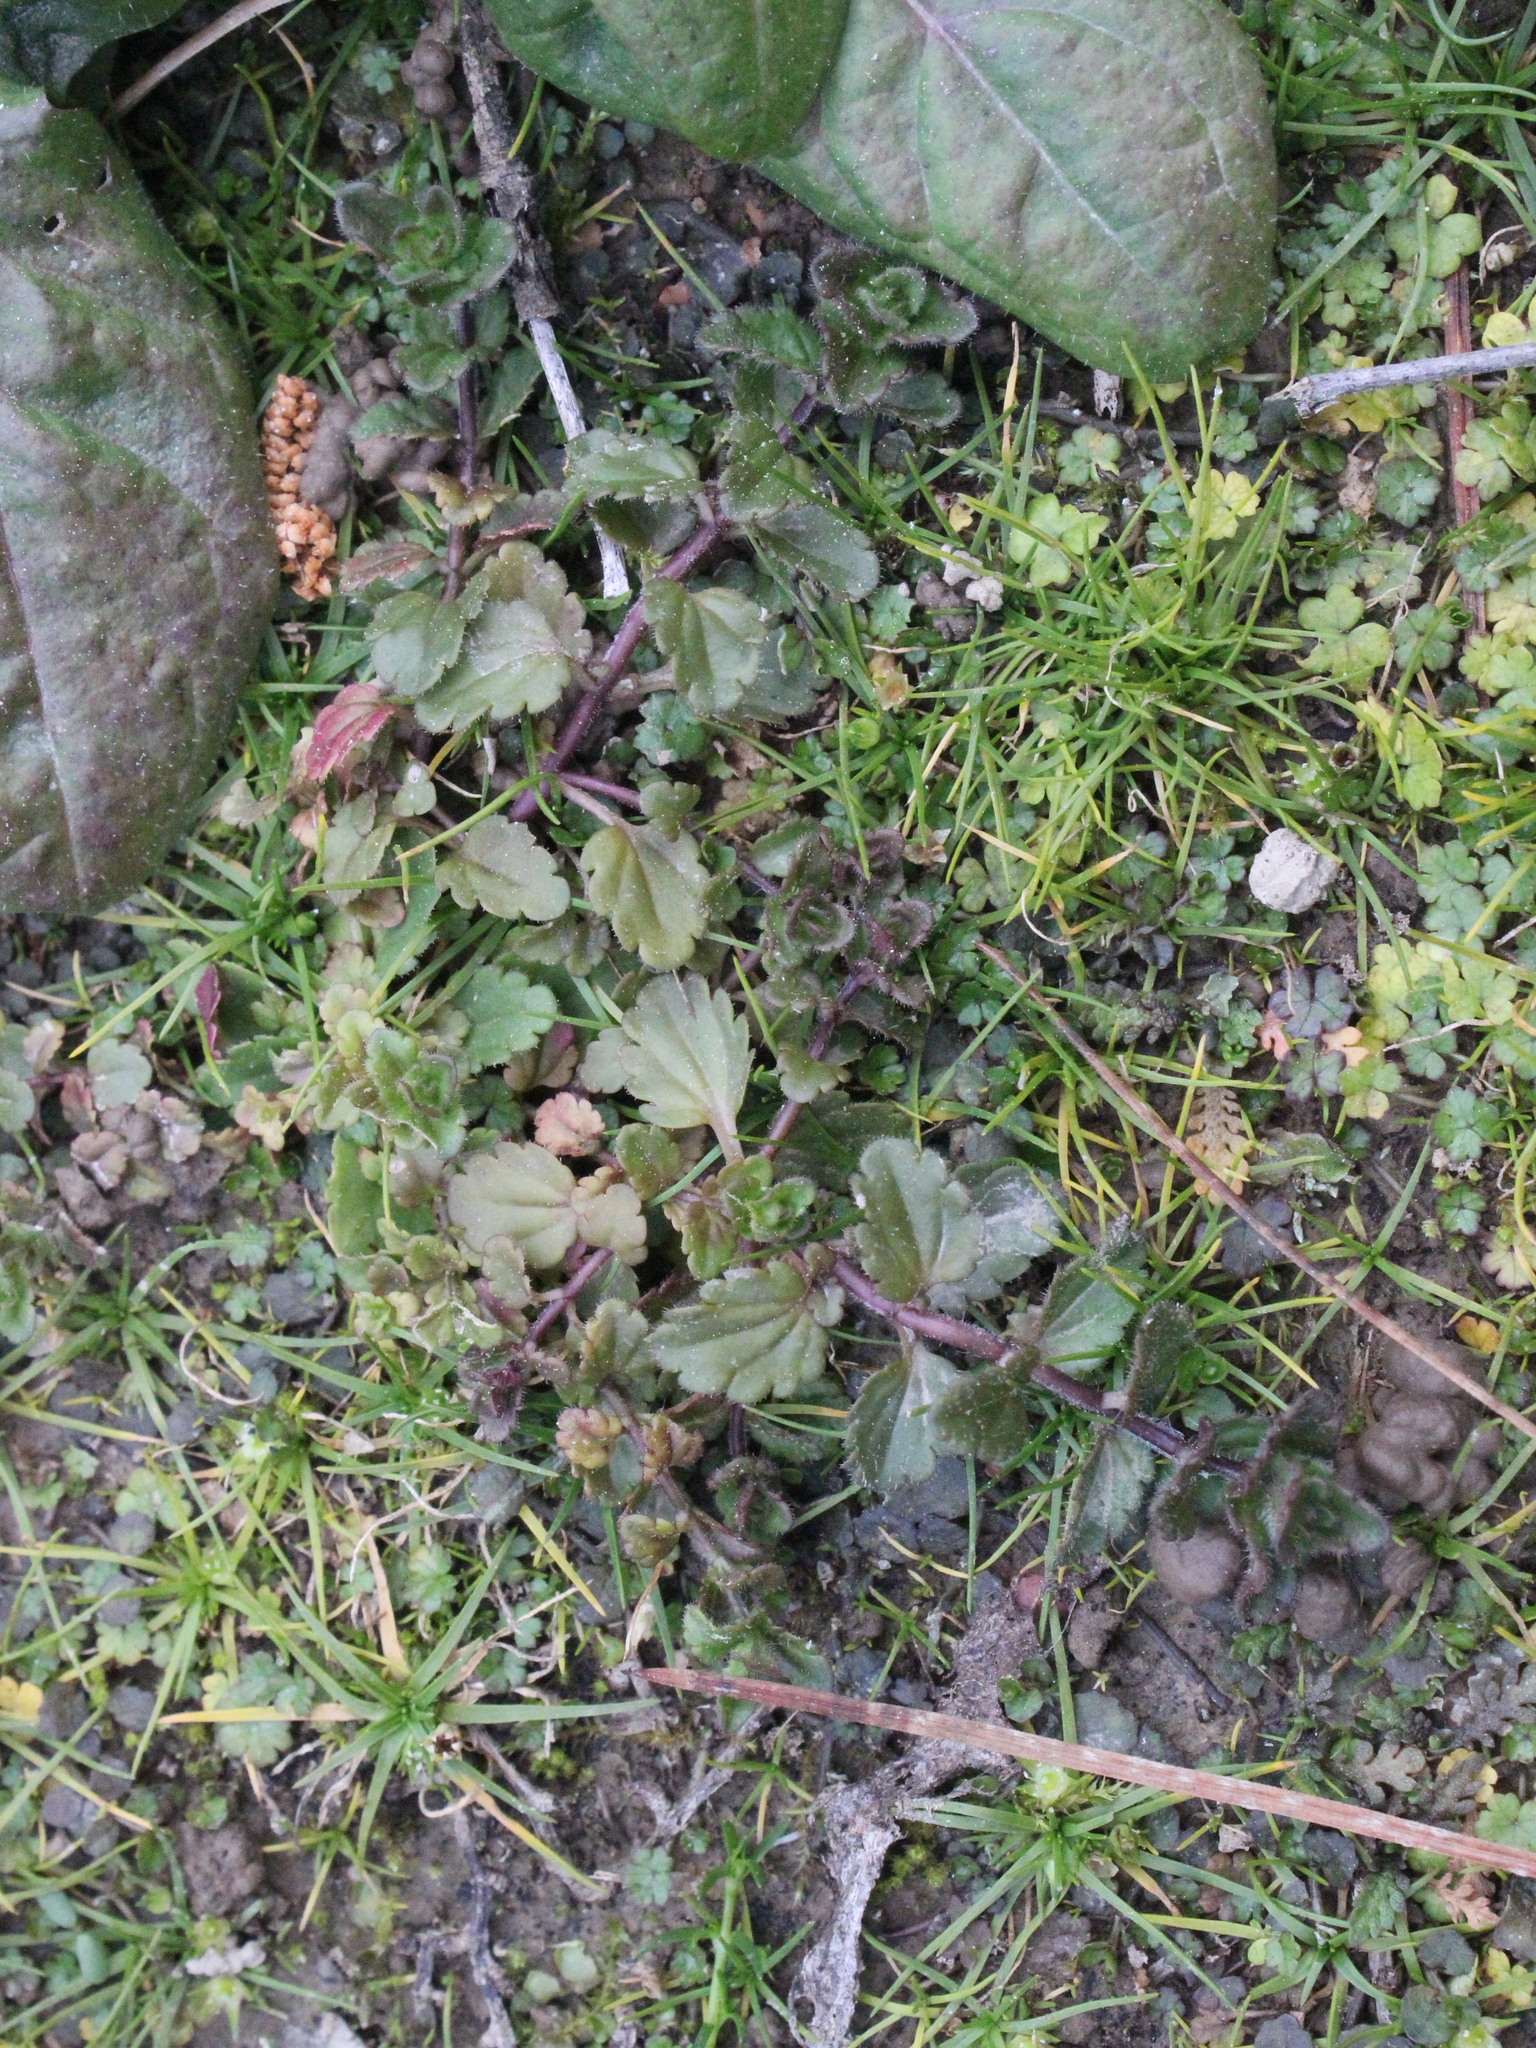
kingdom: Plantae
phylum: Tracheophyta
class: Magnoliopsida
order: Lamiales
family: Plantaginaceae
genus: Veronica
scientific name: Veronica persica
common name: Common field-speedwell
